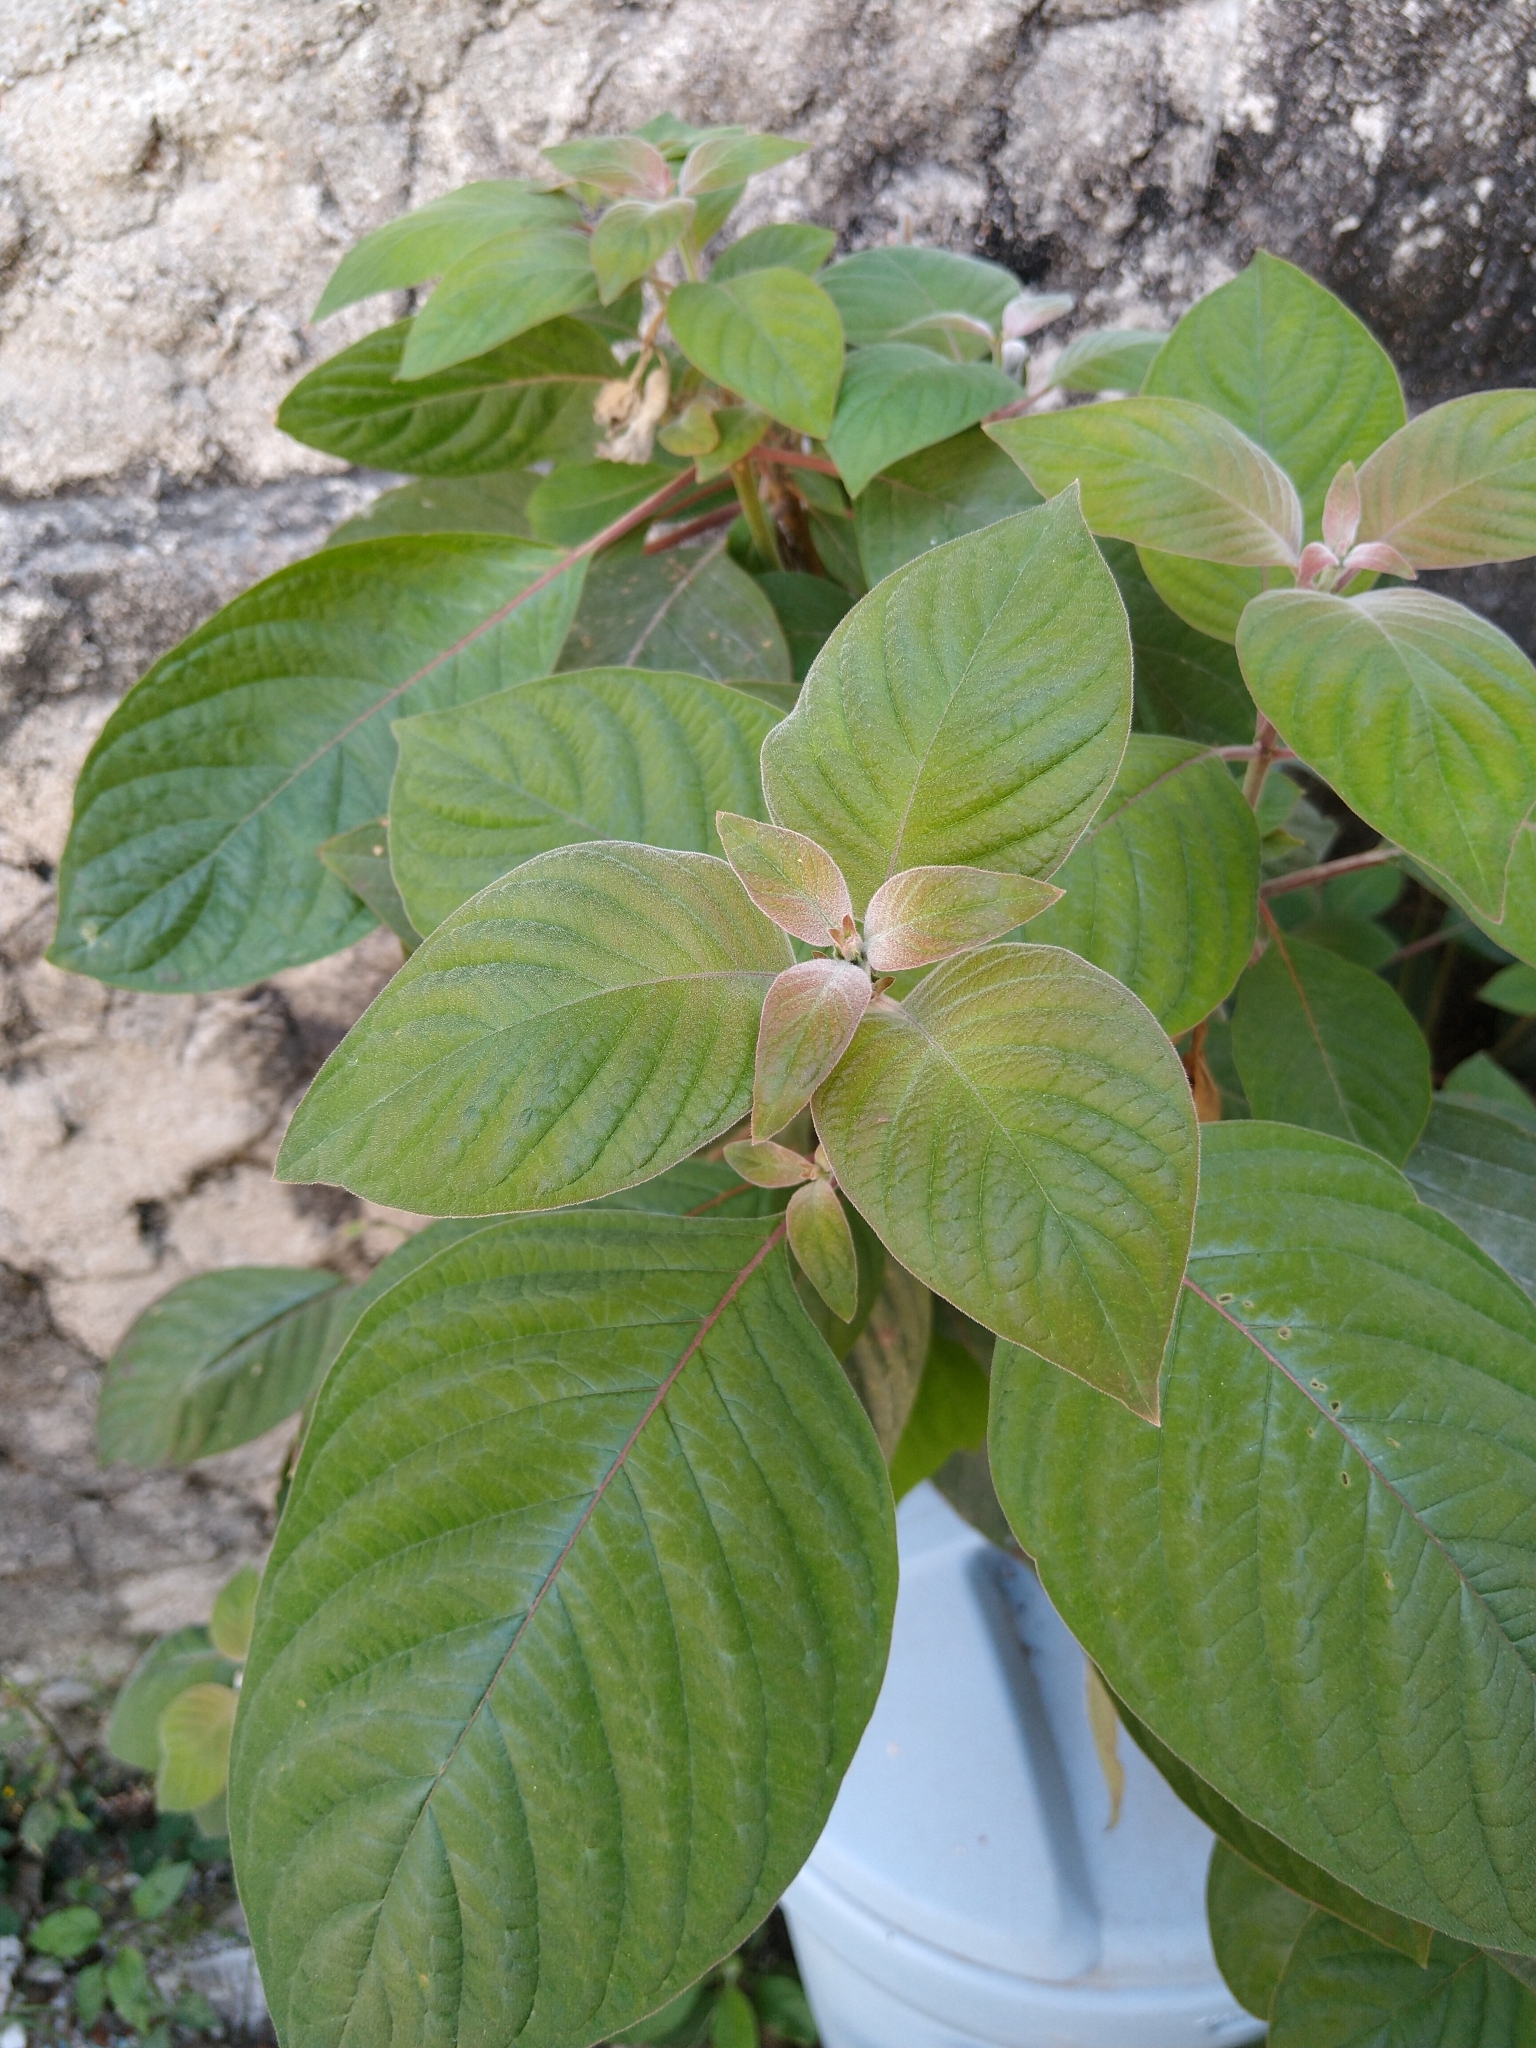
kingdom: Plantae
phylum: Tracheophyta
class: Magnoliopsida
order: Gentianales
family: Rubiaceae
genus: Hamelia
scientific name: Hamelia patens
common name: Redhead
